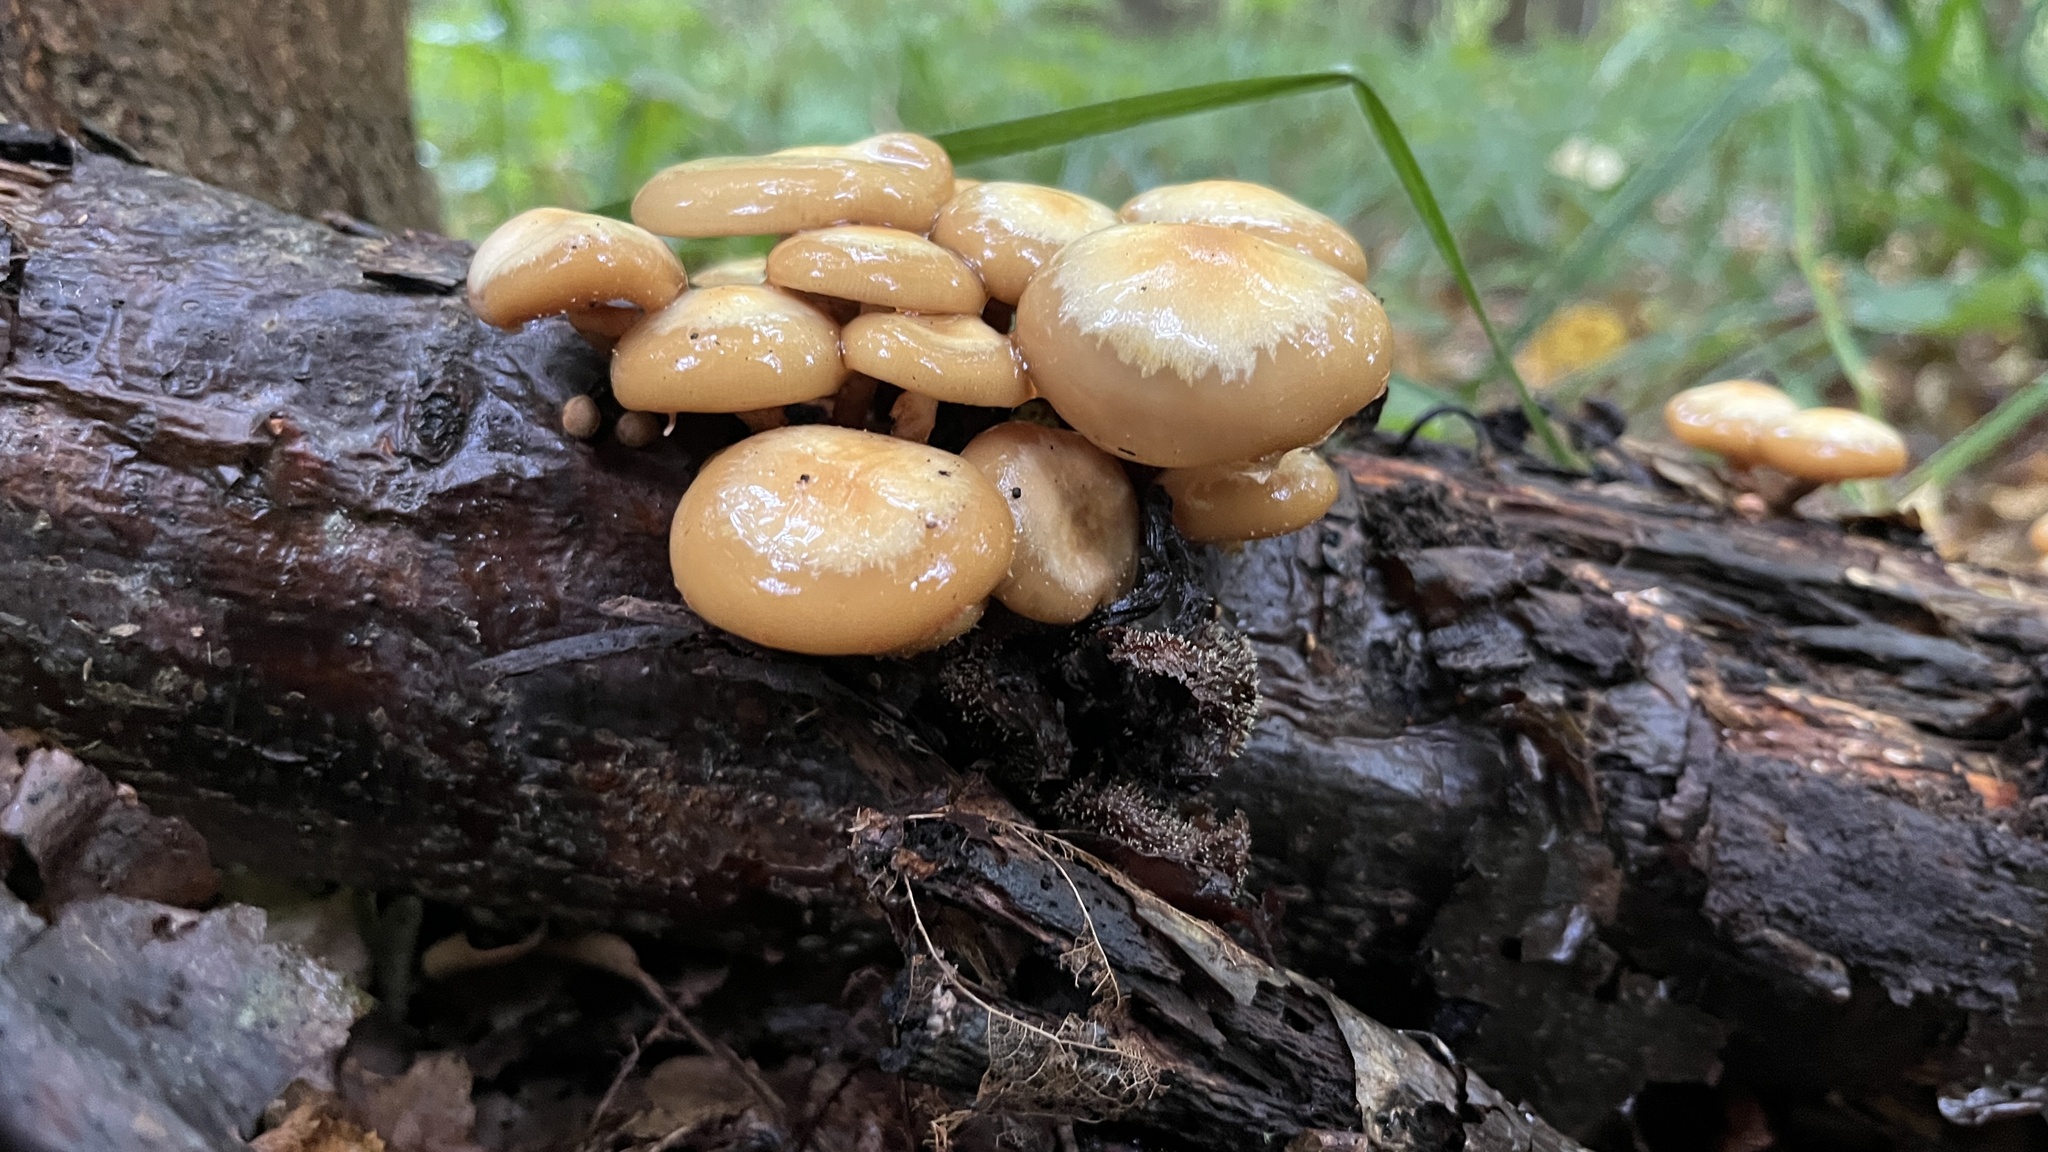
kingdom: Fungi
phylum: Basidiomycota
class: Agaricomycetes
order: Agaricales
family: Strophariaceae
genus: Kuehneromyces
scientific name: Kuehneromyces mutabilis
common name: Sheathed woodtuft
